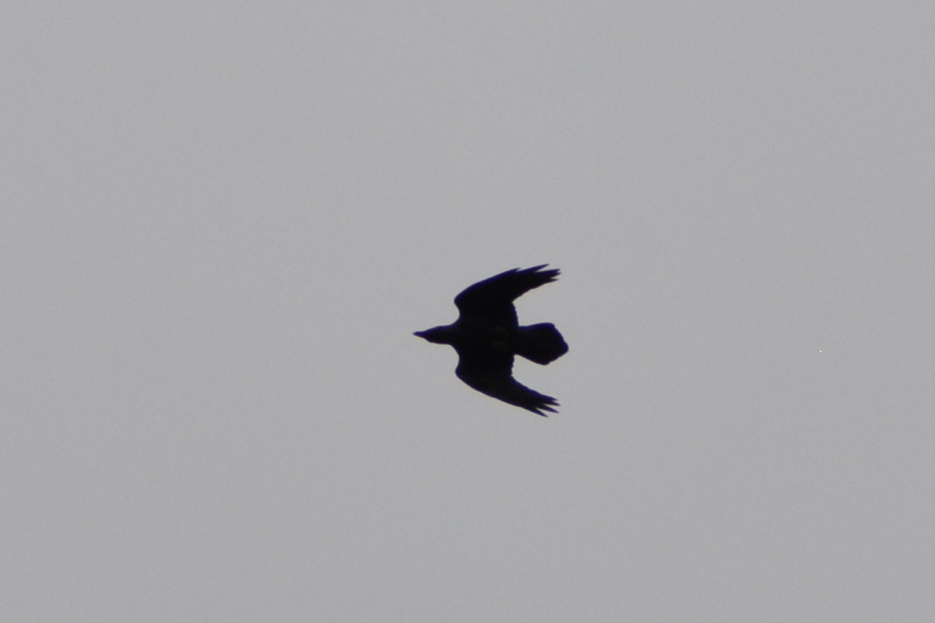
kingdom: Animalia
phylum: Chordata
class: Aves
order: Passeriformes
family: Corvidae
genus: Corvus
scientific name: Corvus corax
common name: Common raven
